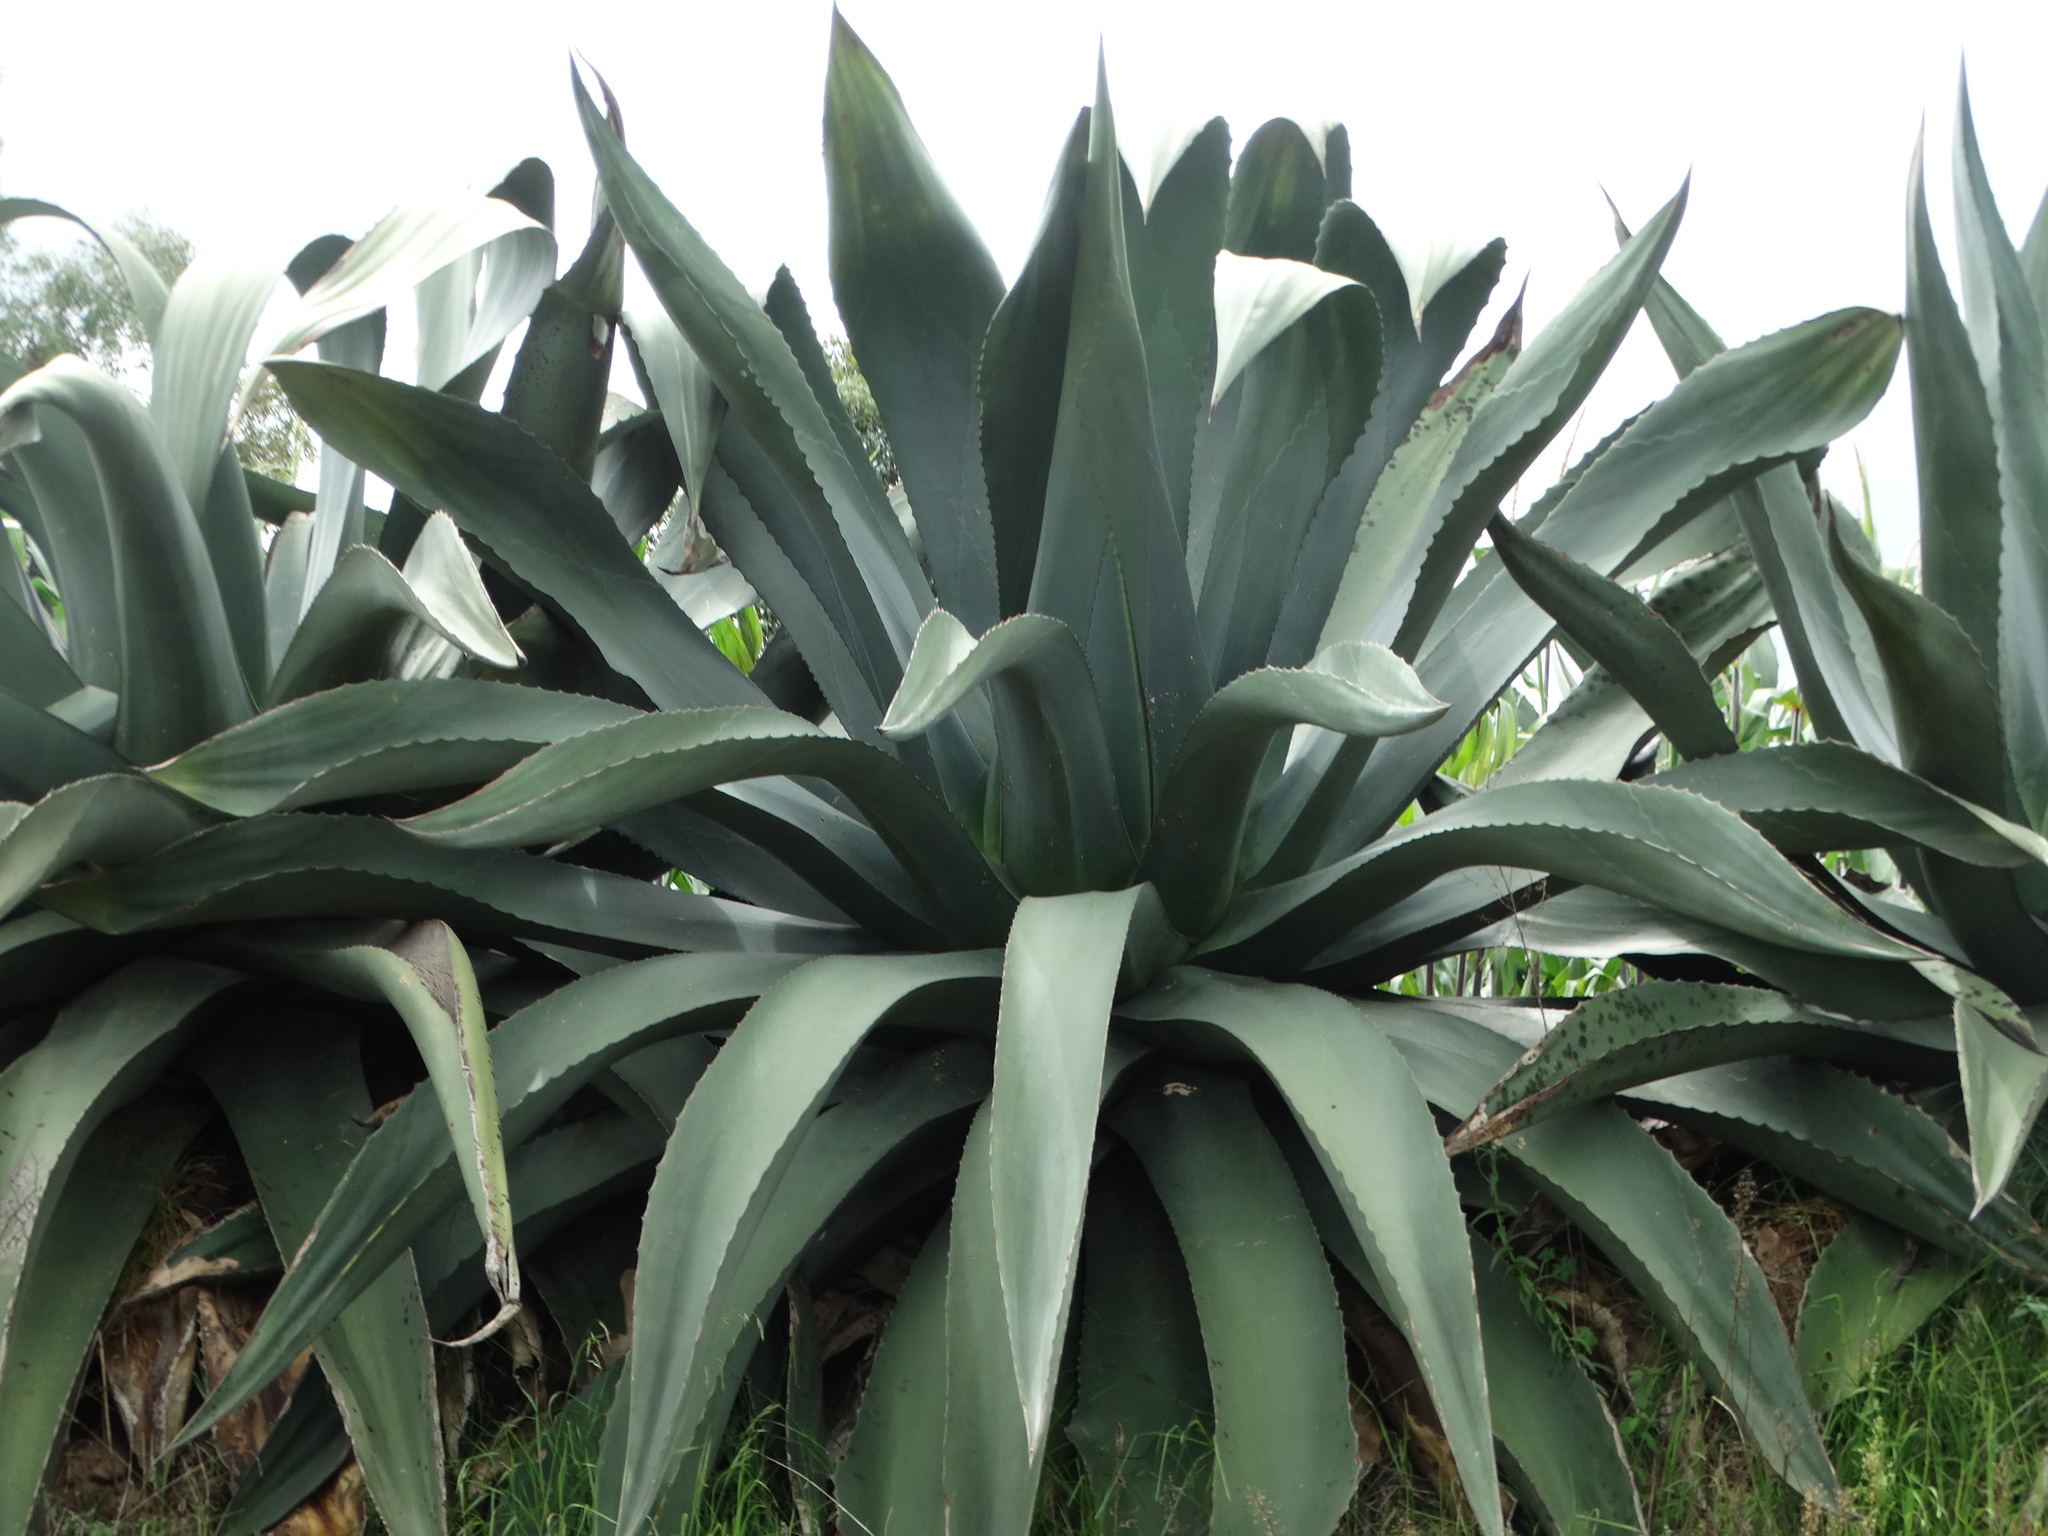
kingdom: Plantae
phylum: Tracheophyta
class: Liliopsida
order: Asparagales
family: Asparagaceae
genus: Agave
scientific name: Agave atrovirens
